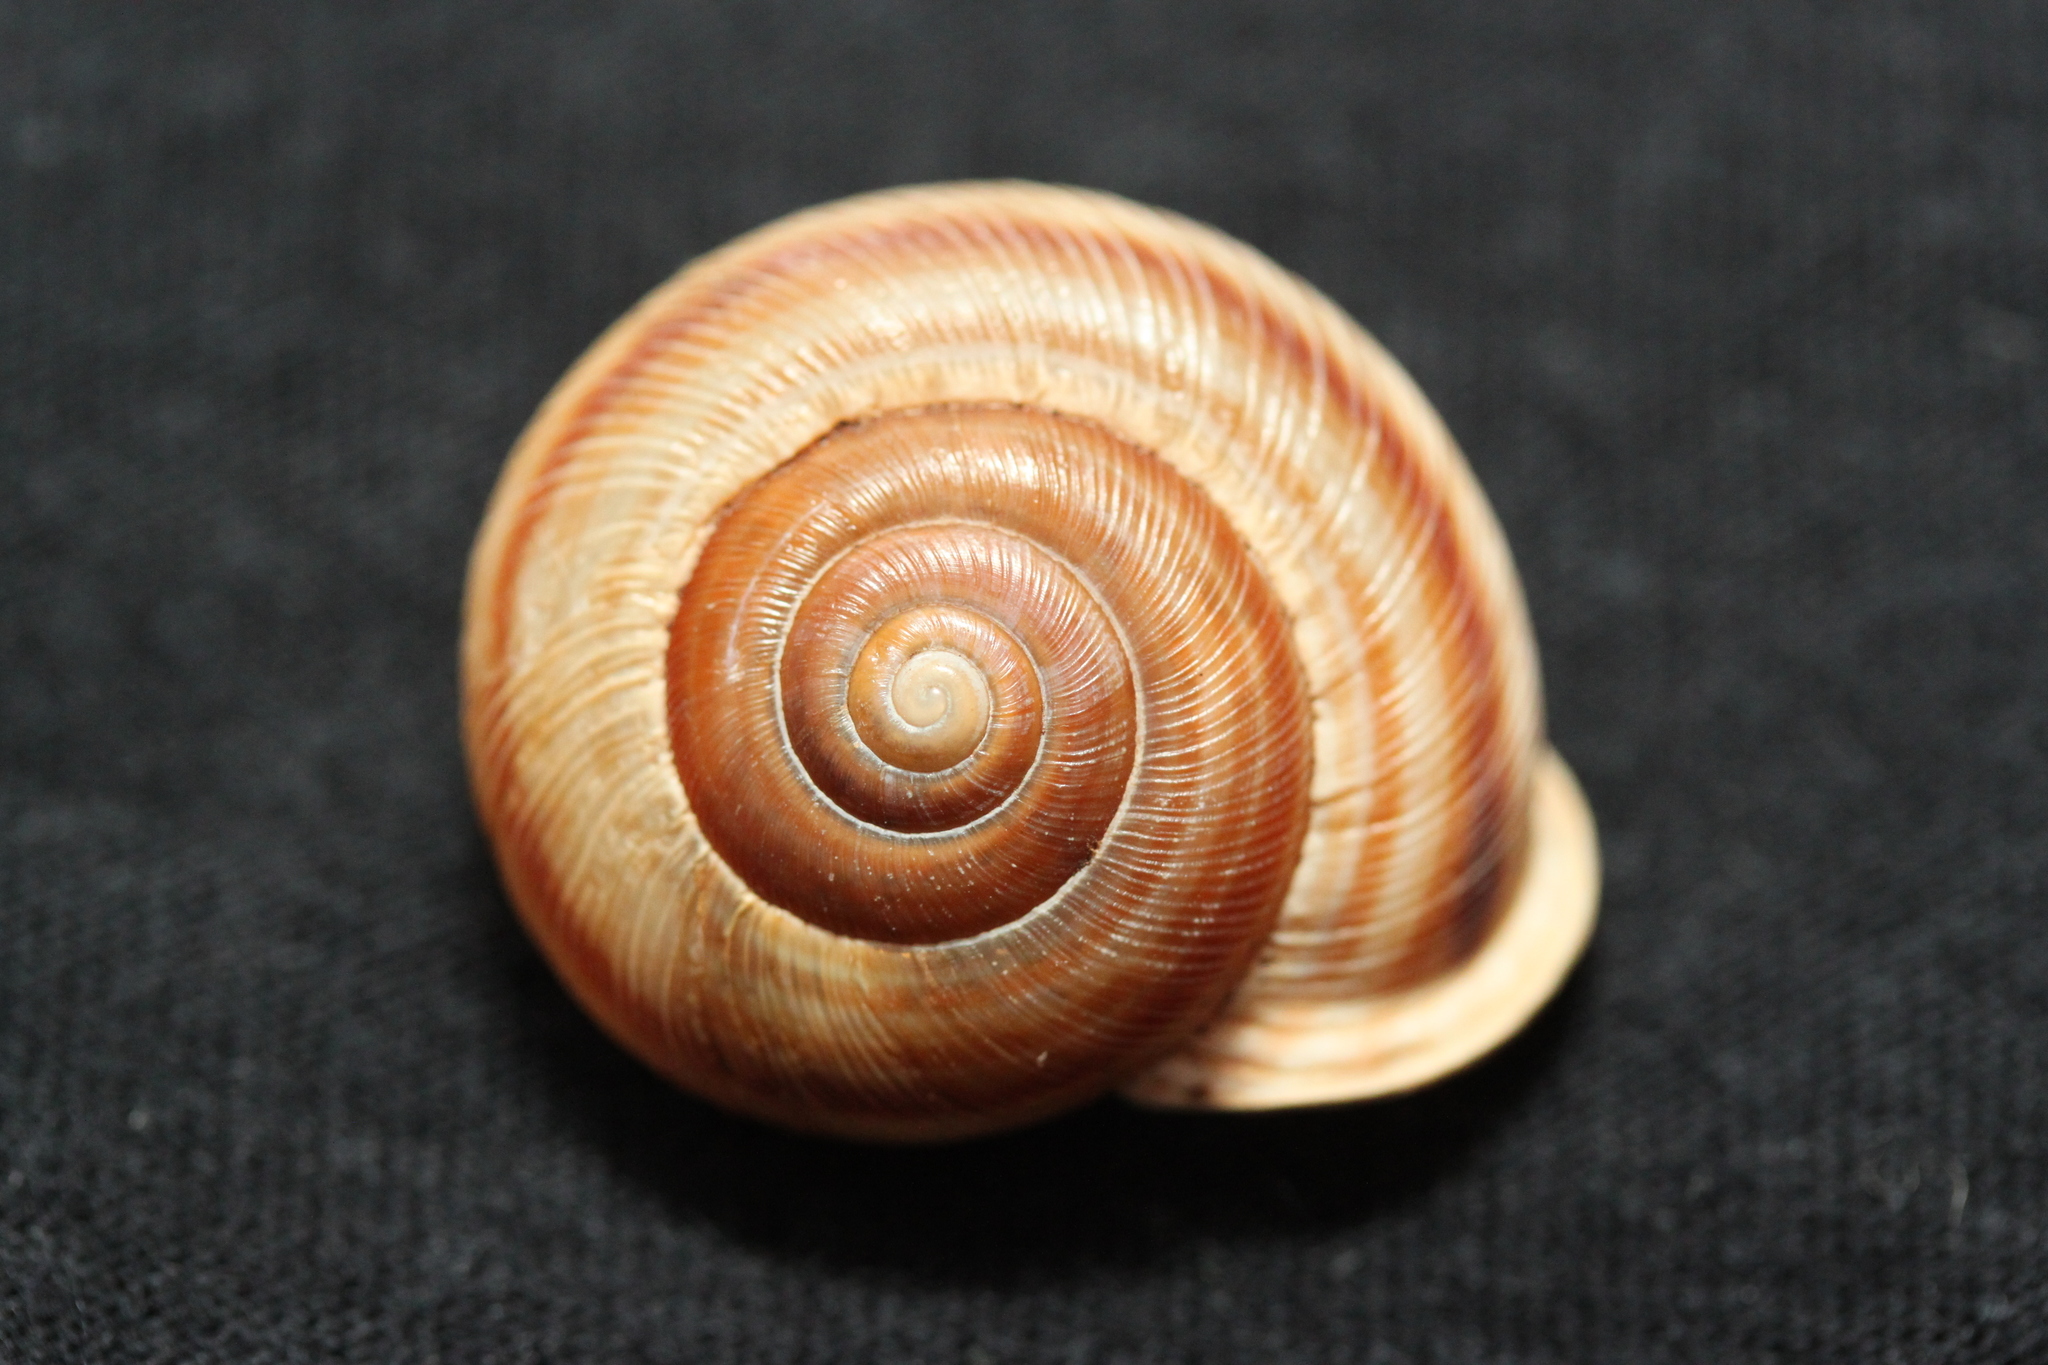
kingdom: Animalia
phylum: Mollusca
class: Gastropoda
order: Stylommatophora
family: Polygyridae
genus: Allogona
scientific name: Allogona profunda
